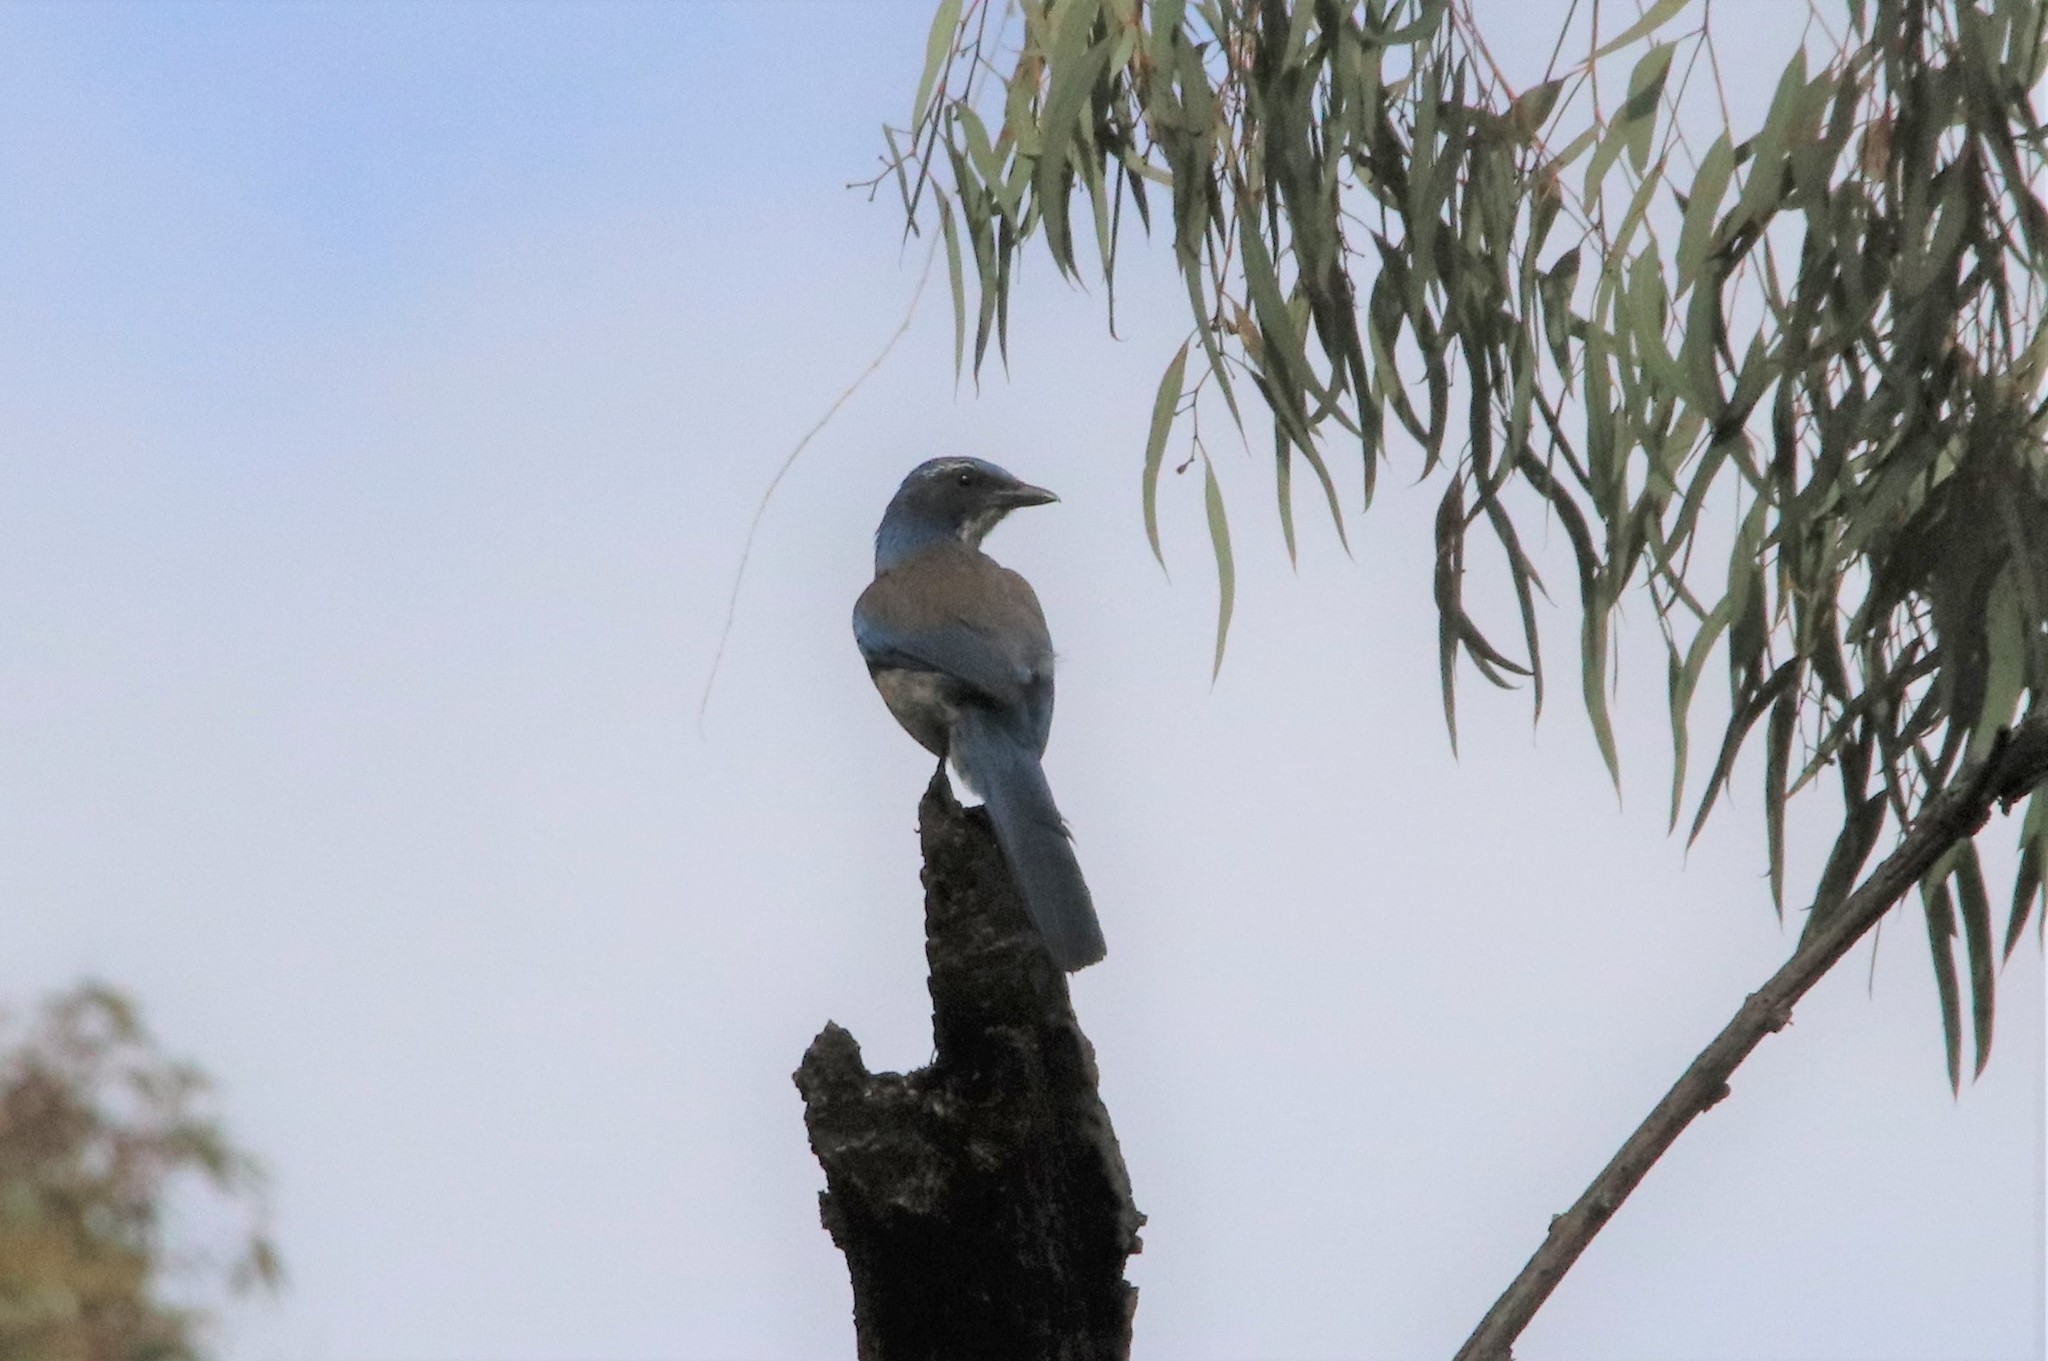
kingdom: Animalia
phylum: Chordata
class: Aves
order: Passeriformes
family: Corvidae
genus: Aphelocoma
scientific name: Aphelocoma californica
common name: California scrub-jay
